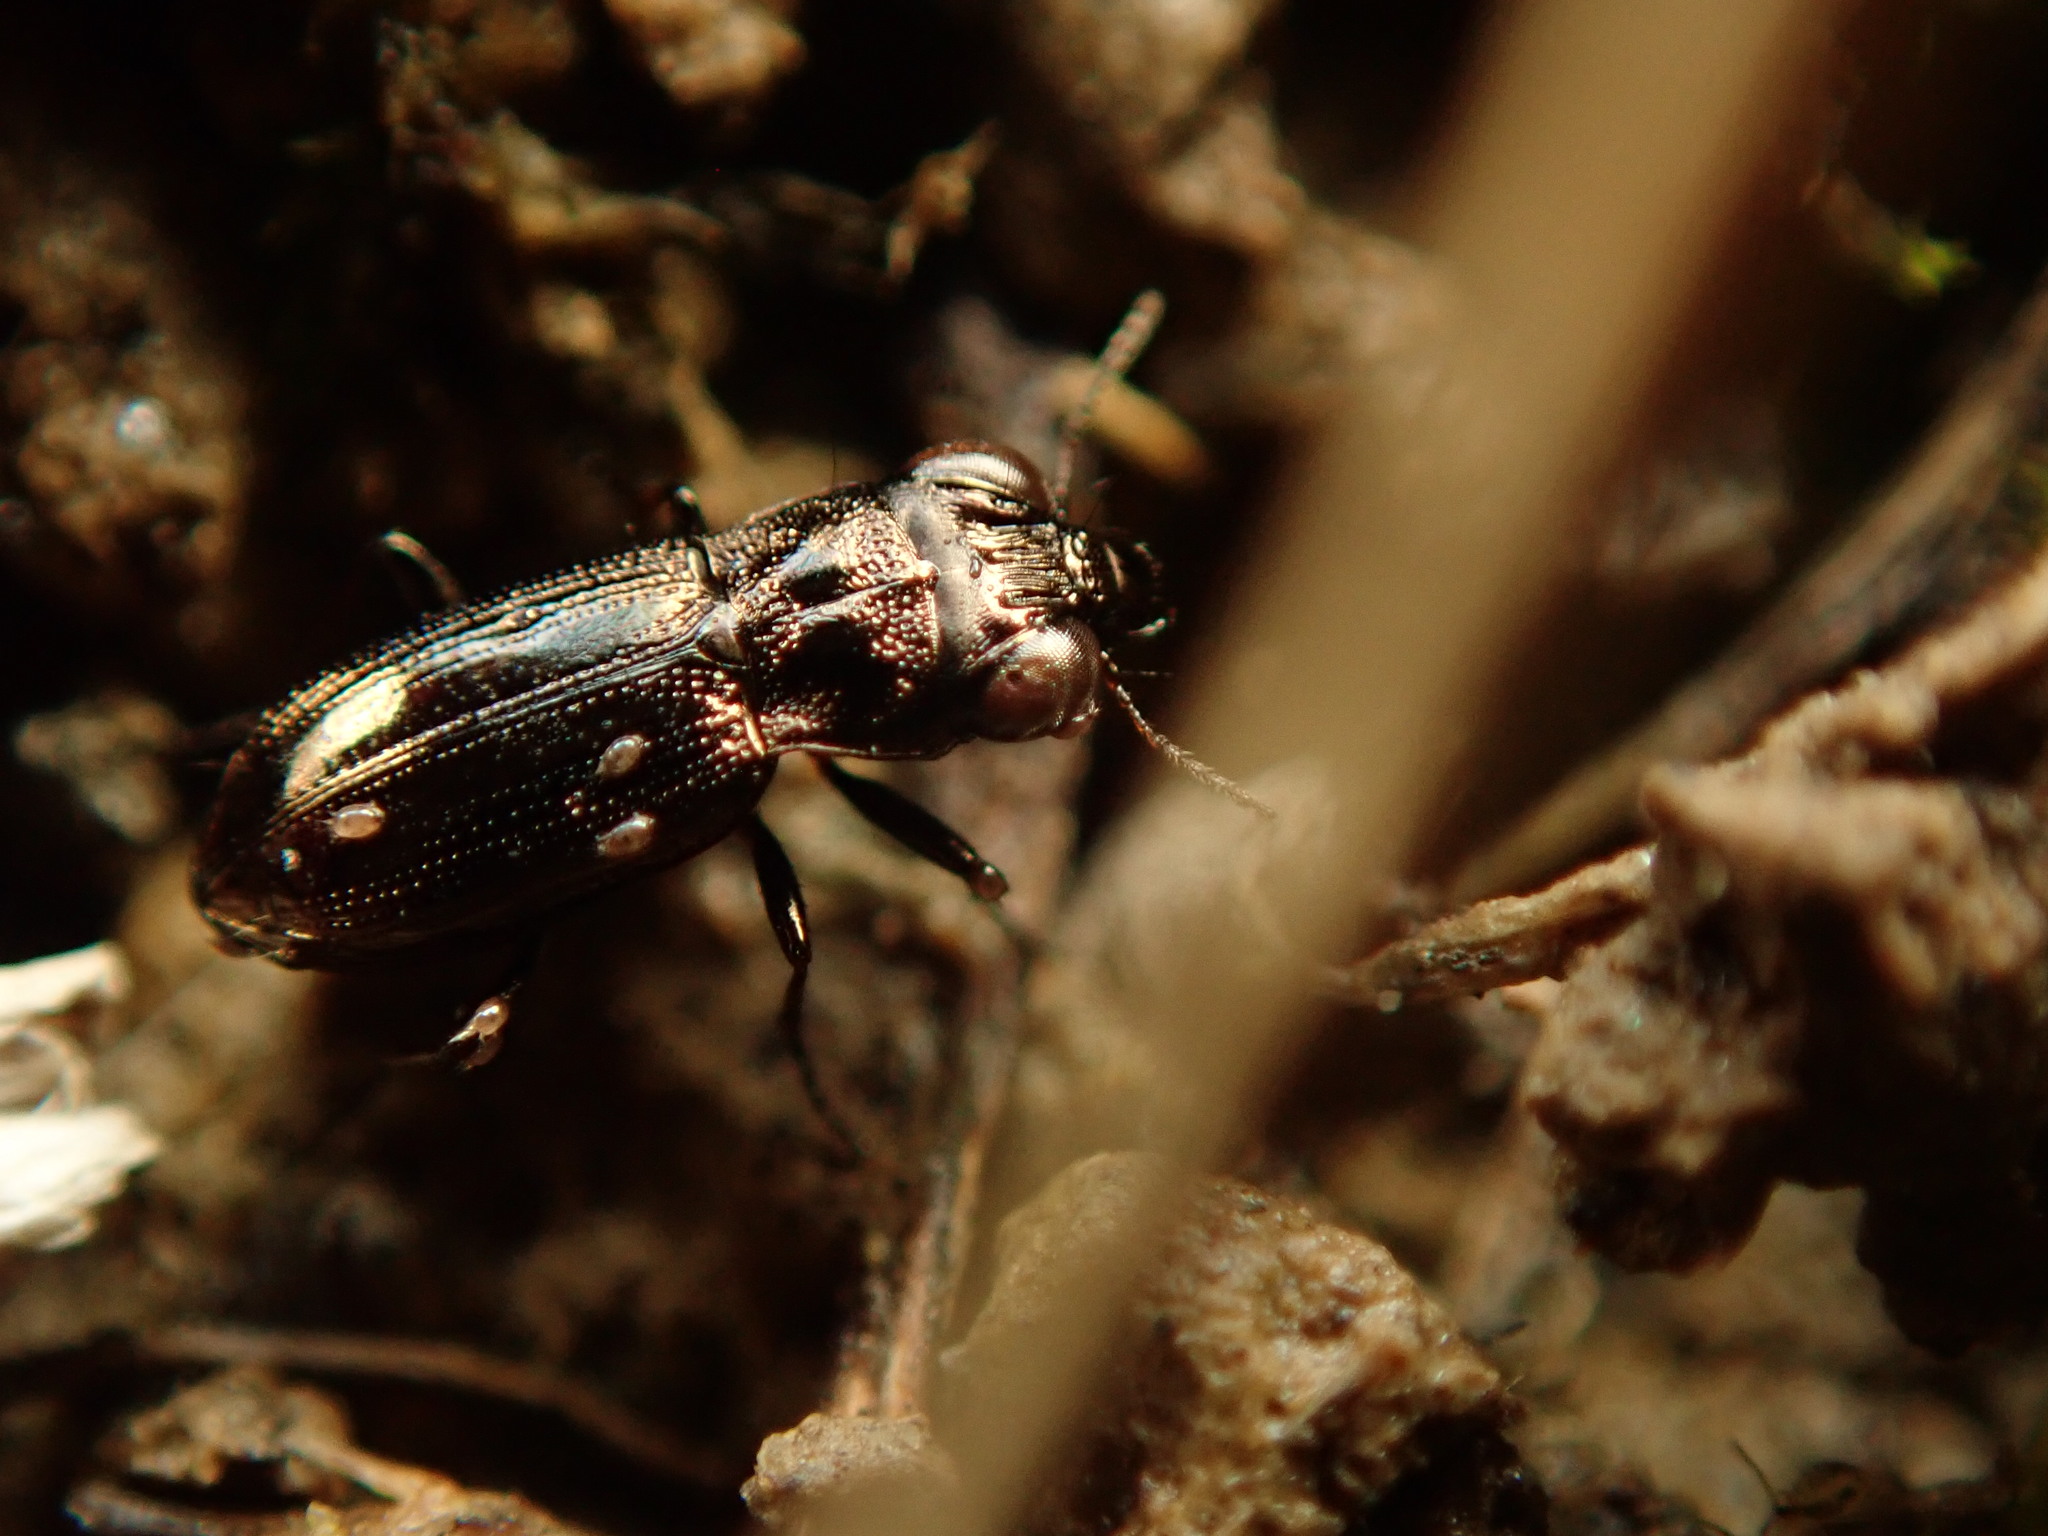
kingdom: Animalia
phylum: Arthropoda
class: Insecta
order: Coleoptera
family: Carabidae
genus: Notiophilus
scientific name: Notiophilus novemstriatus
